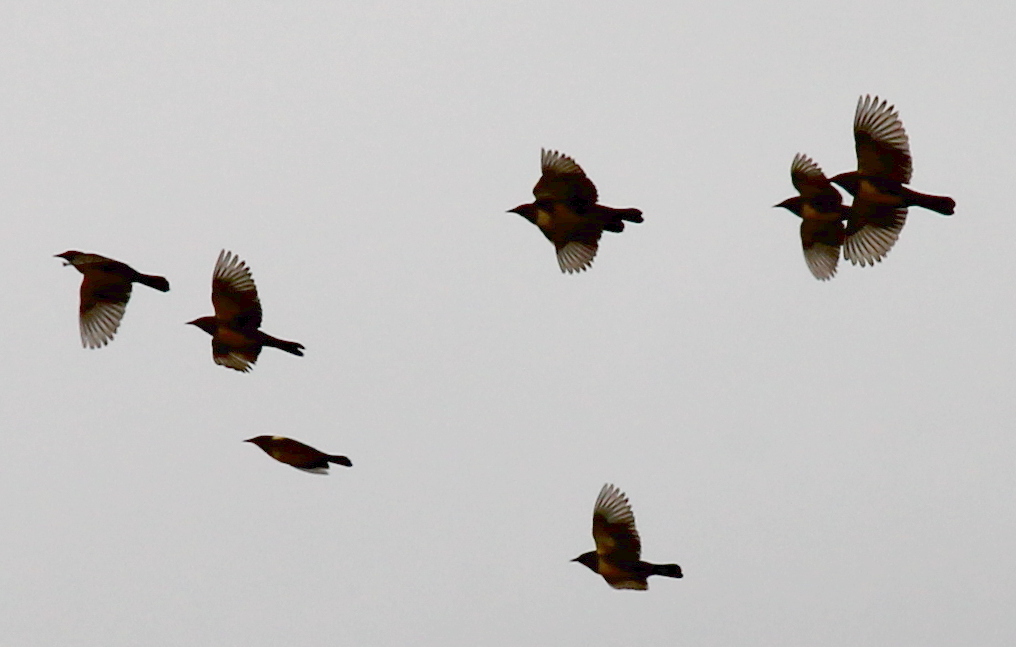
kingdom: Animalia
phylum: Chordata
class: Aves
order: Passeriformes
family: Icteridae
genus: Pseudoleistes
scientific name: Pseudoleistes virescens
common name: Brown-and-yellow marshbird
